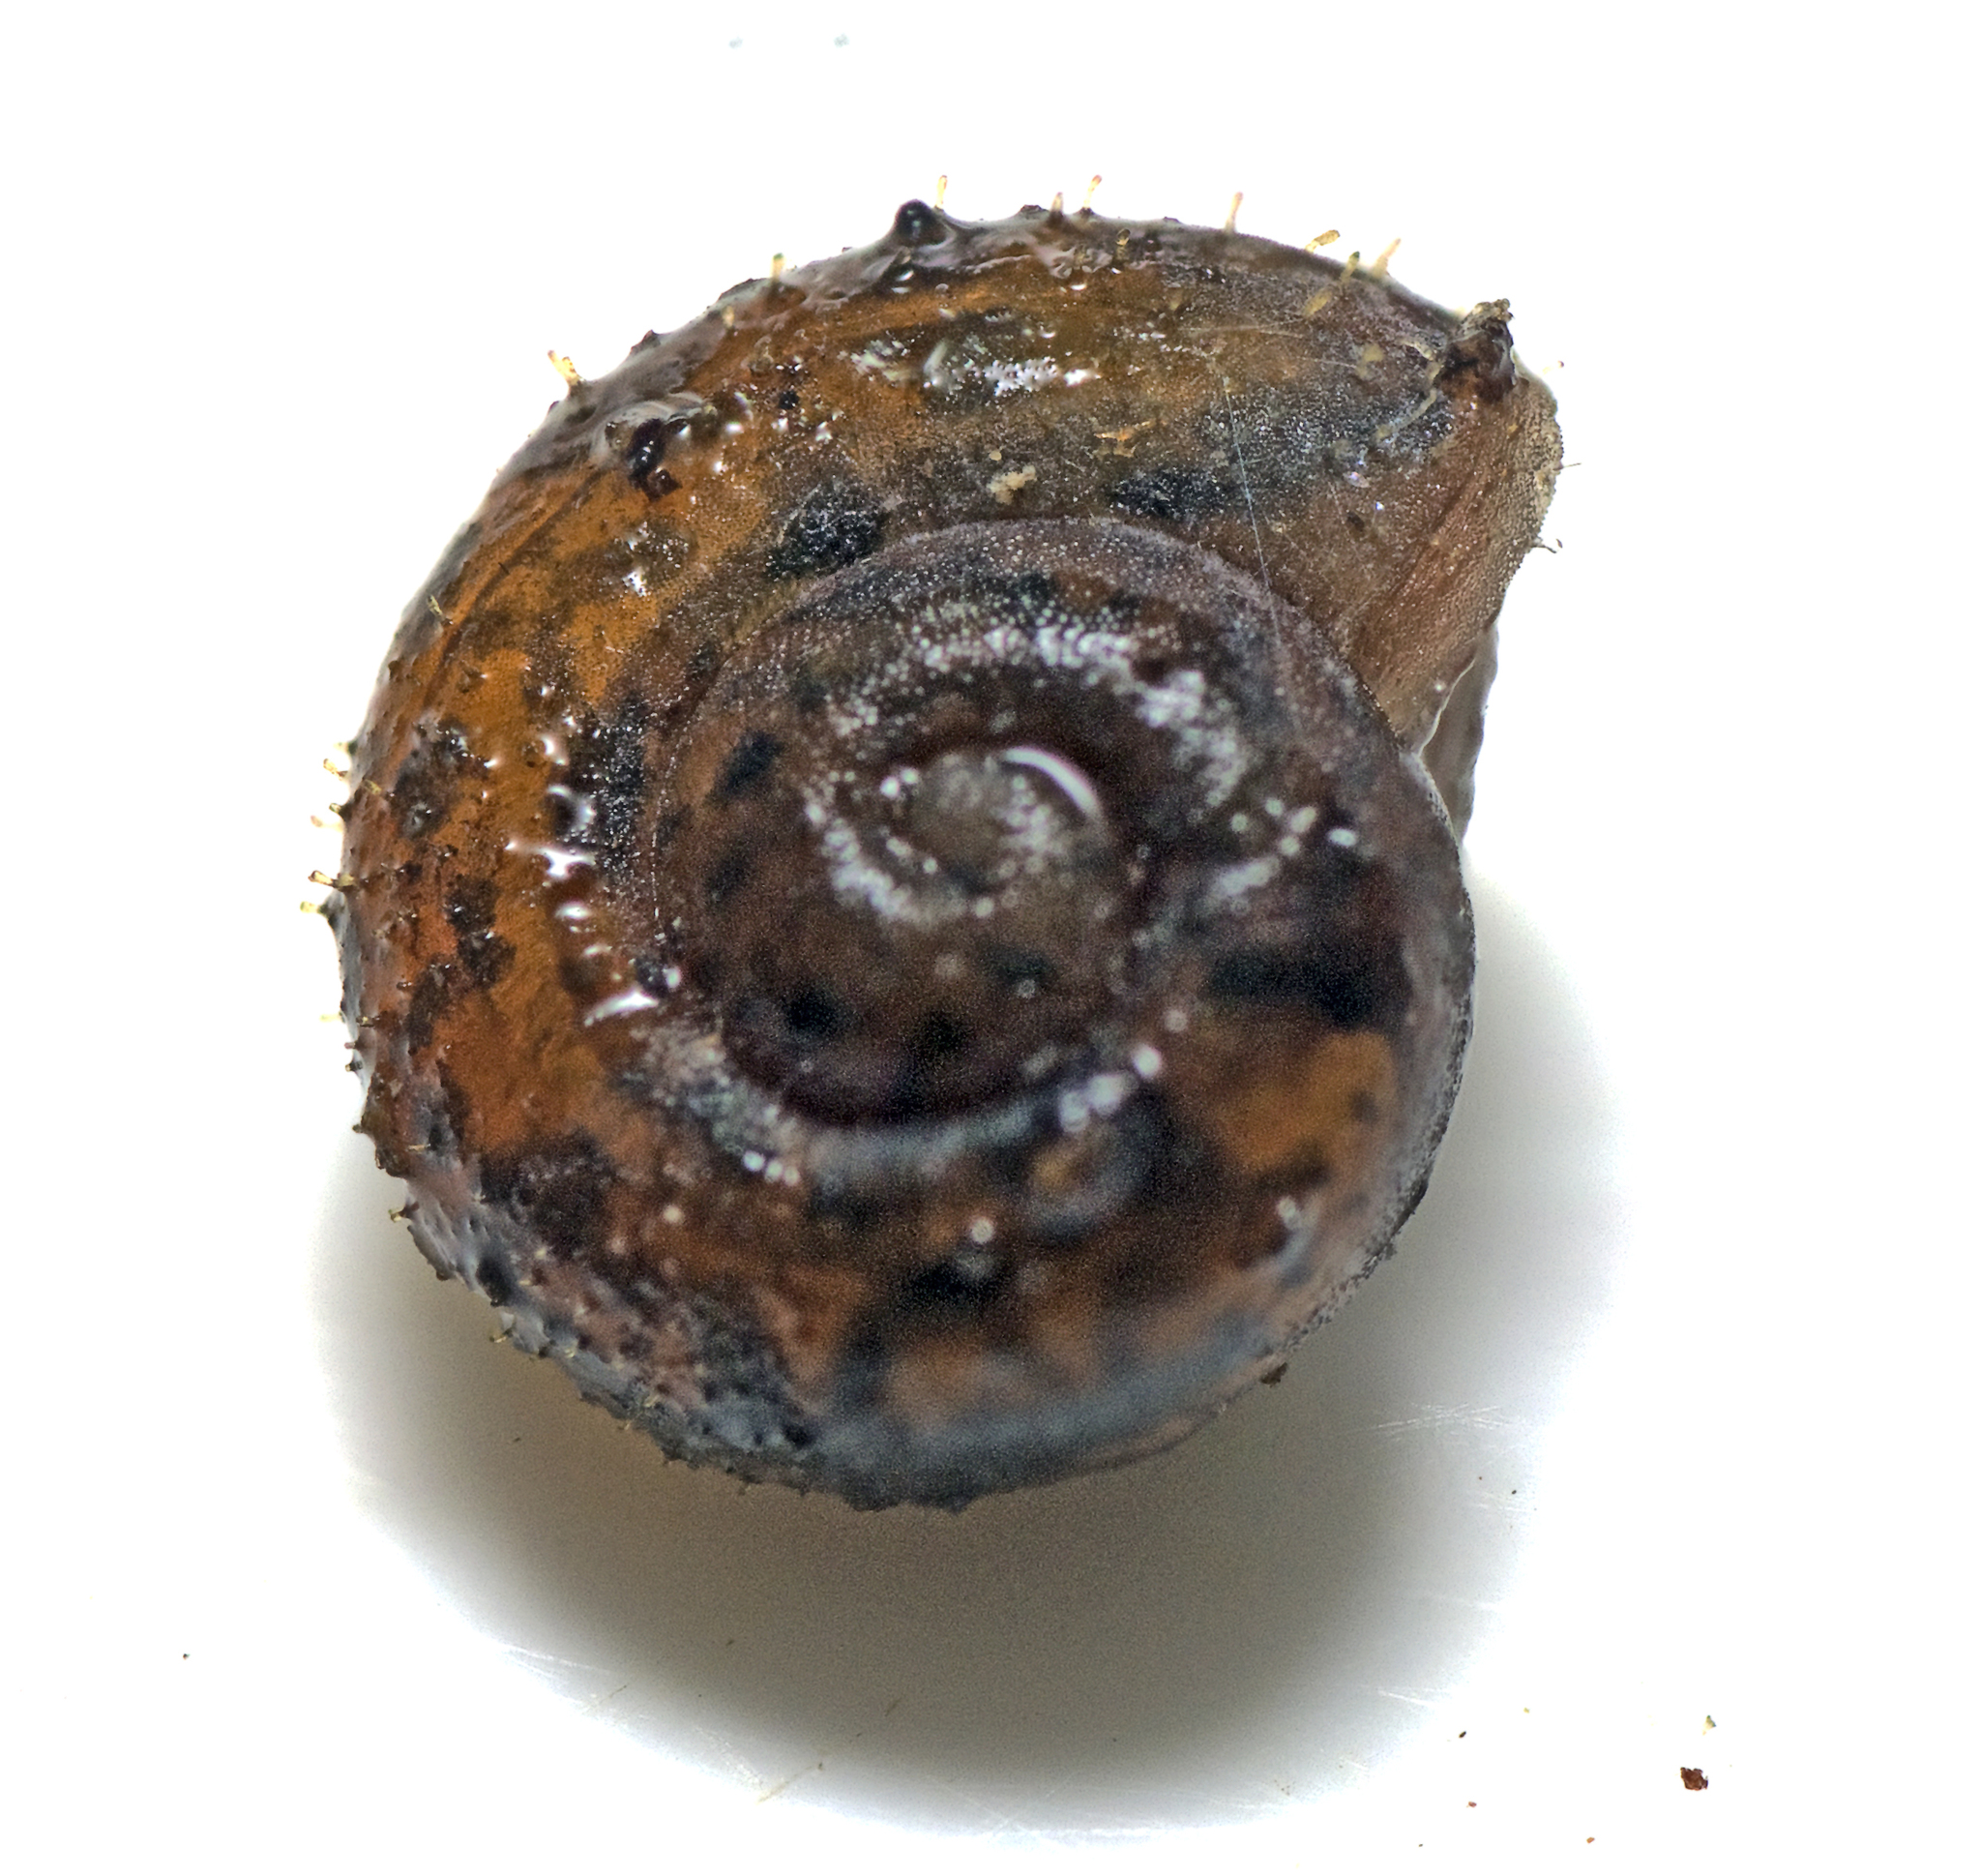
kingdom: Animalia
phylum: Mollusca
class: Gastropoda
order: Stylommatophora
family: Camaenidae
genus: Ramogenia
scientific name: Ramogenia challengeri
